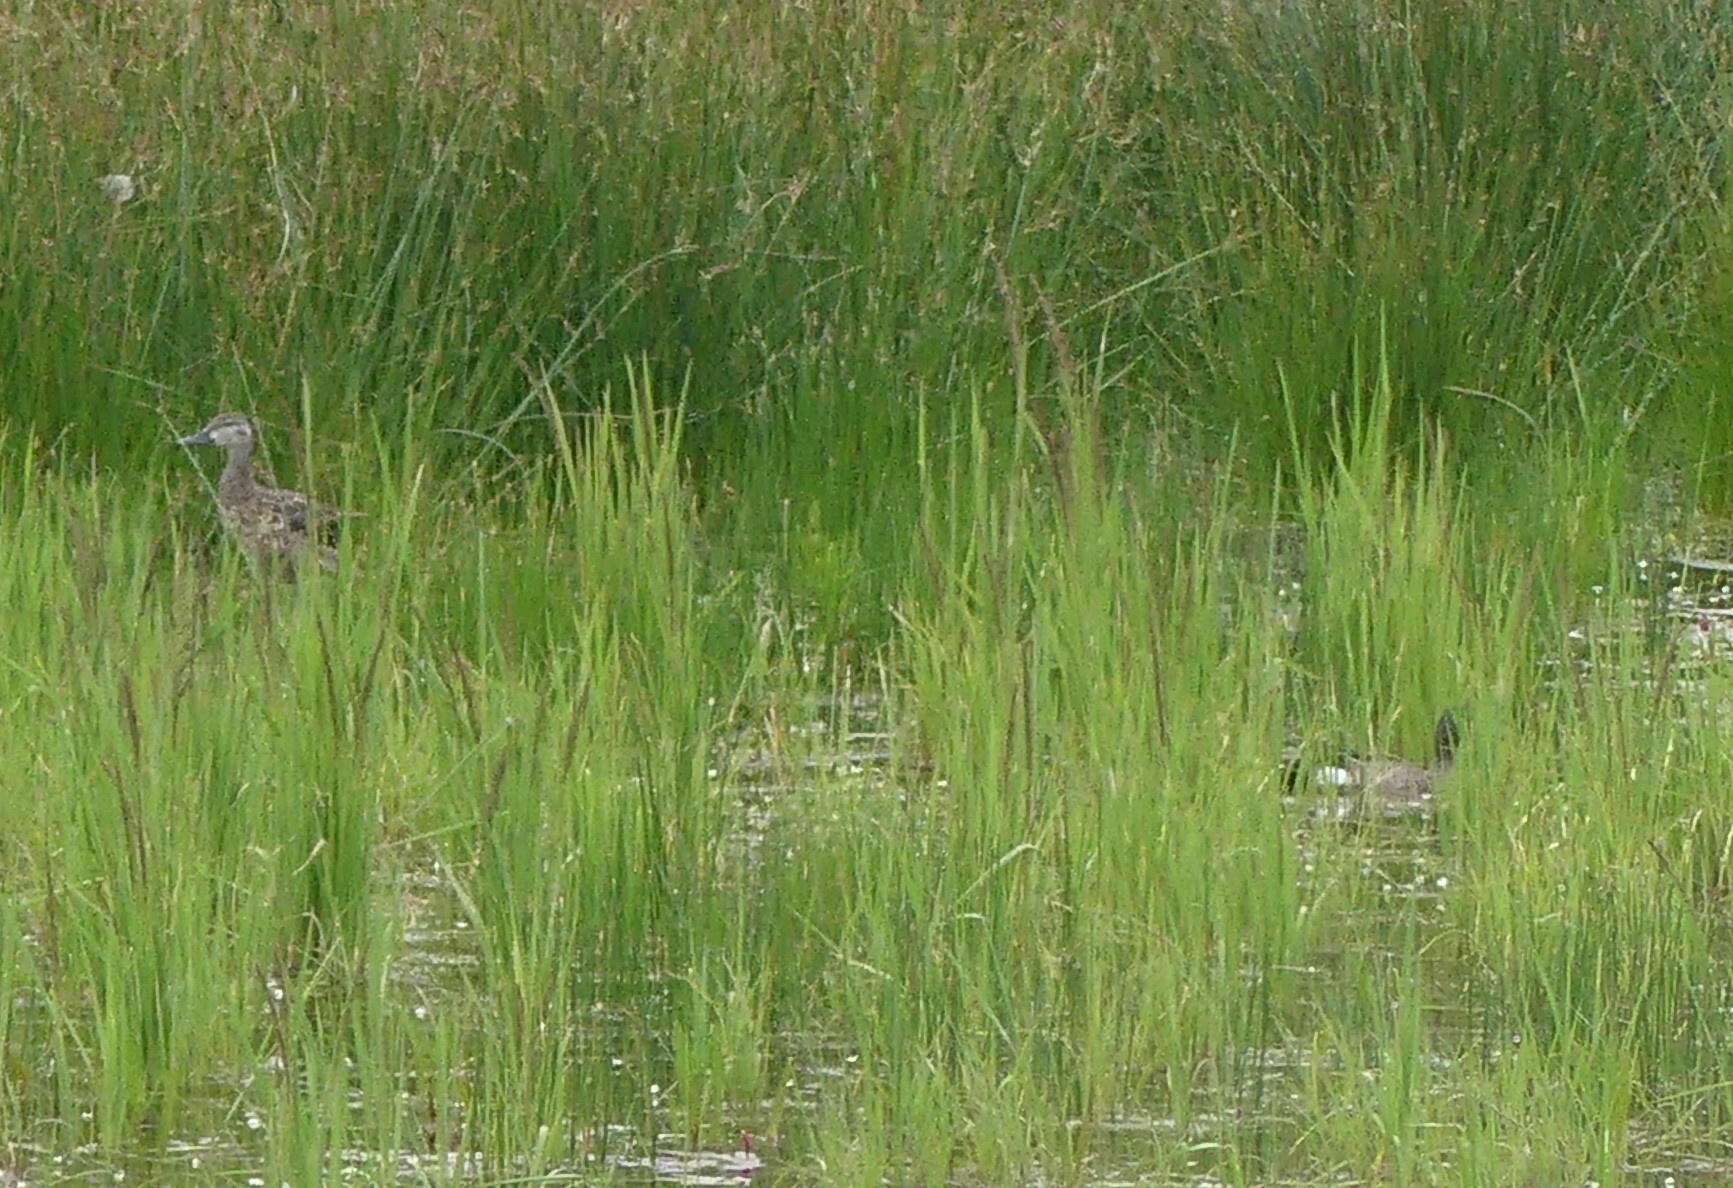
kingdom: Animalia
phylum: Chordata
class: Aves
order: Anseriformes
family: Anatidae
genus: Spatula
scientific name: Spatula discors
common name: Blue-winged teal
